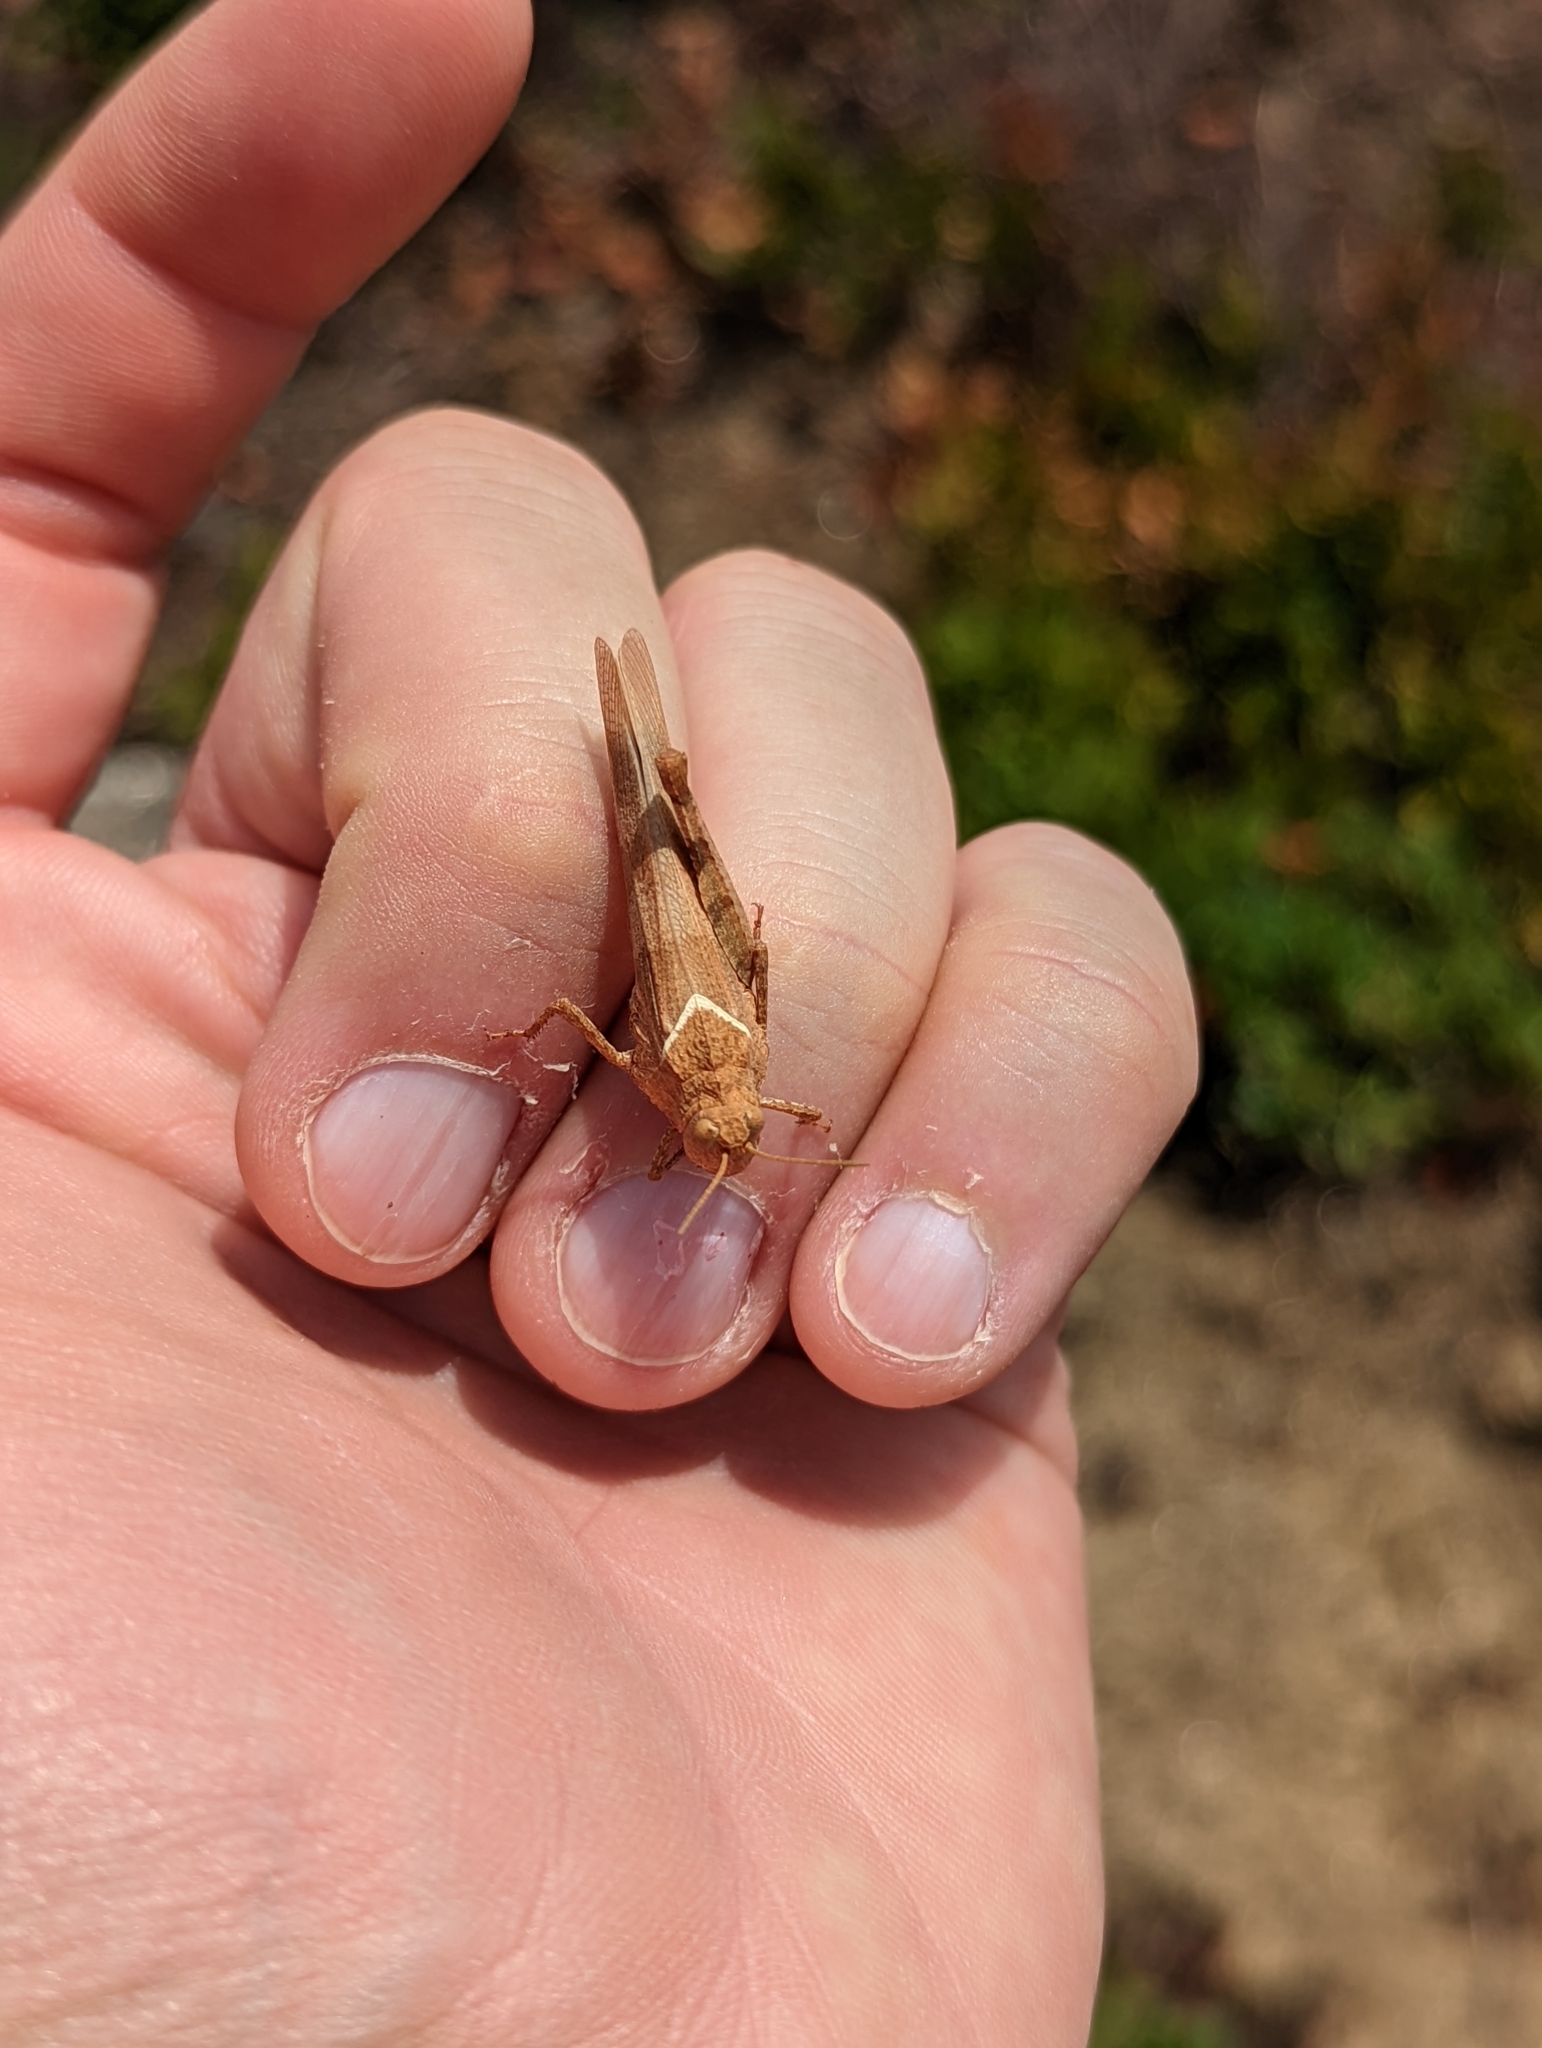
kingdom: Animalia
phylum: Arthropoda
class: Insecta
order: Orthoptera
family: Acrididae
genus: Oedipoda
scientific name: Oedipoda caerulescens
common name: Blue-winged grasshopper
